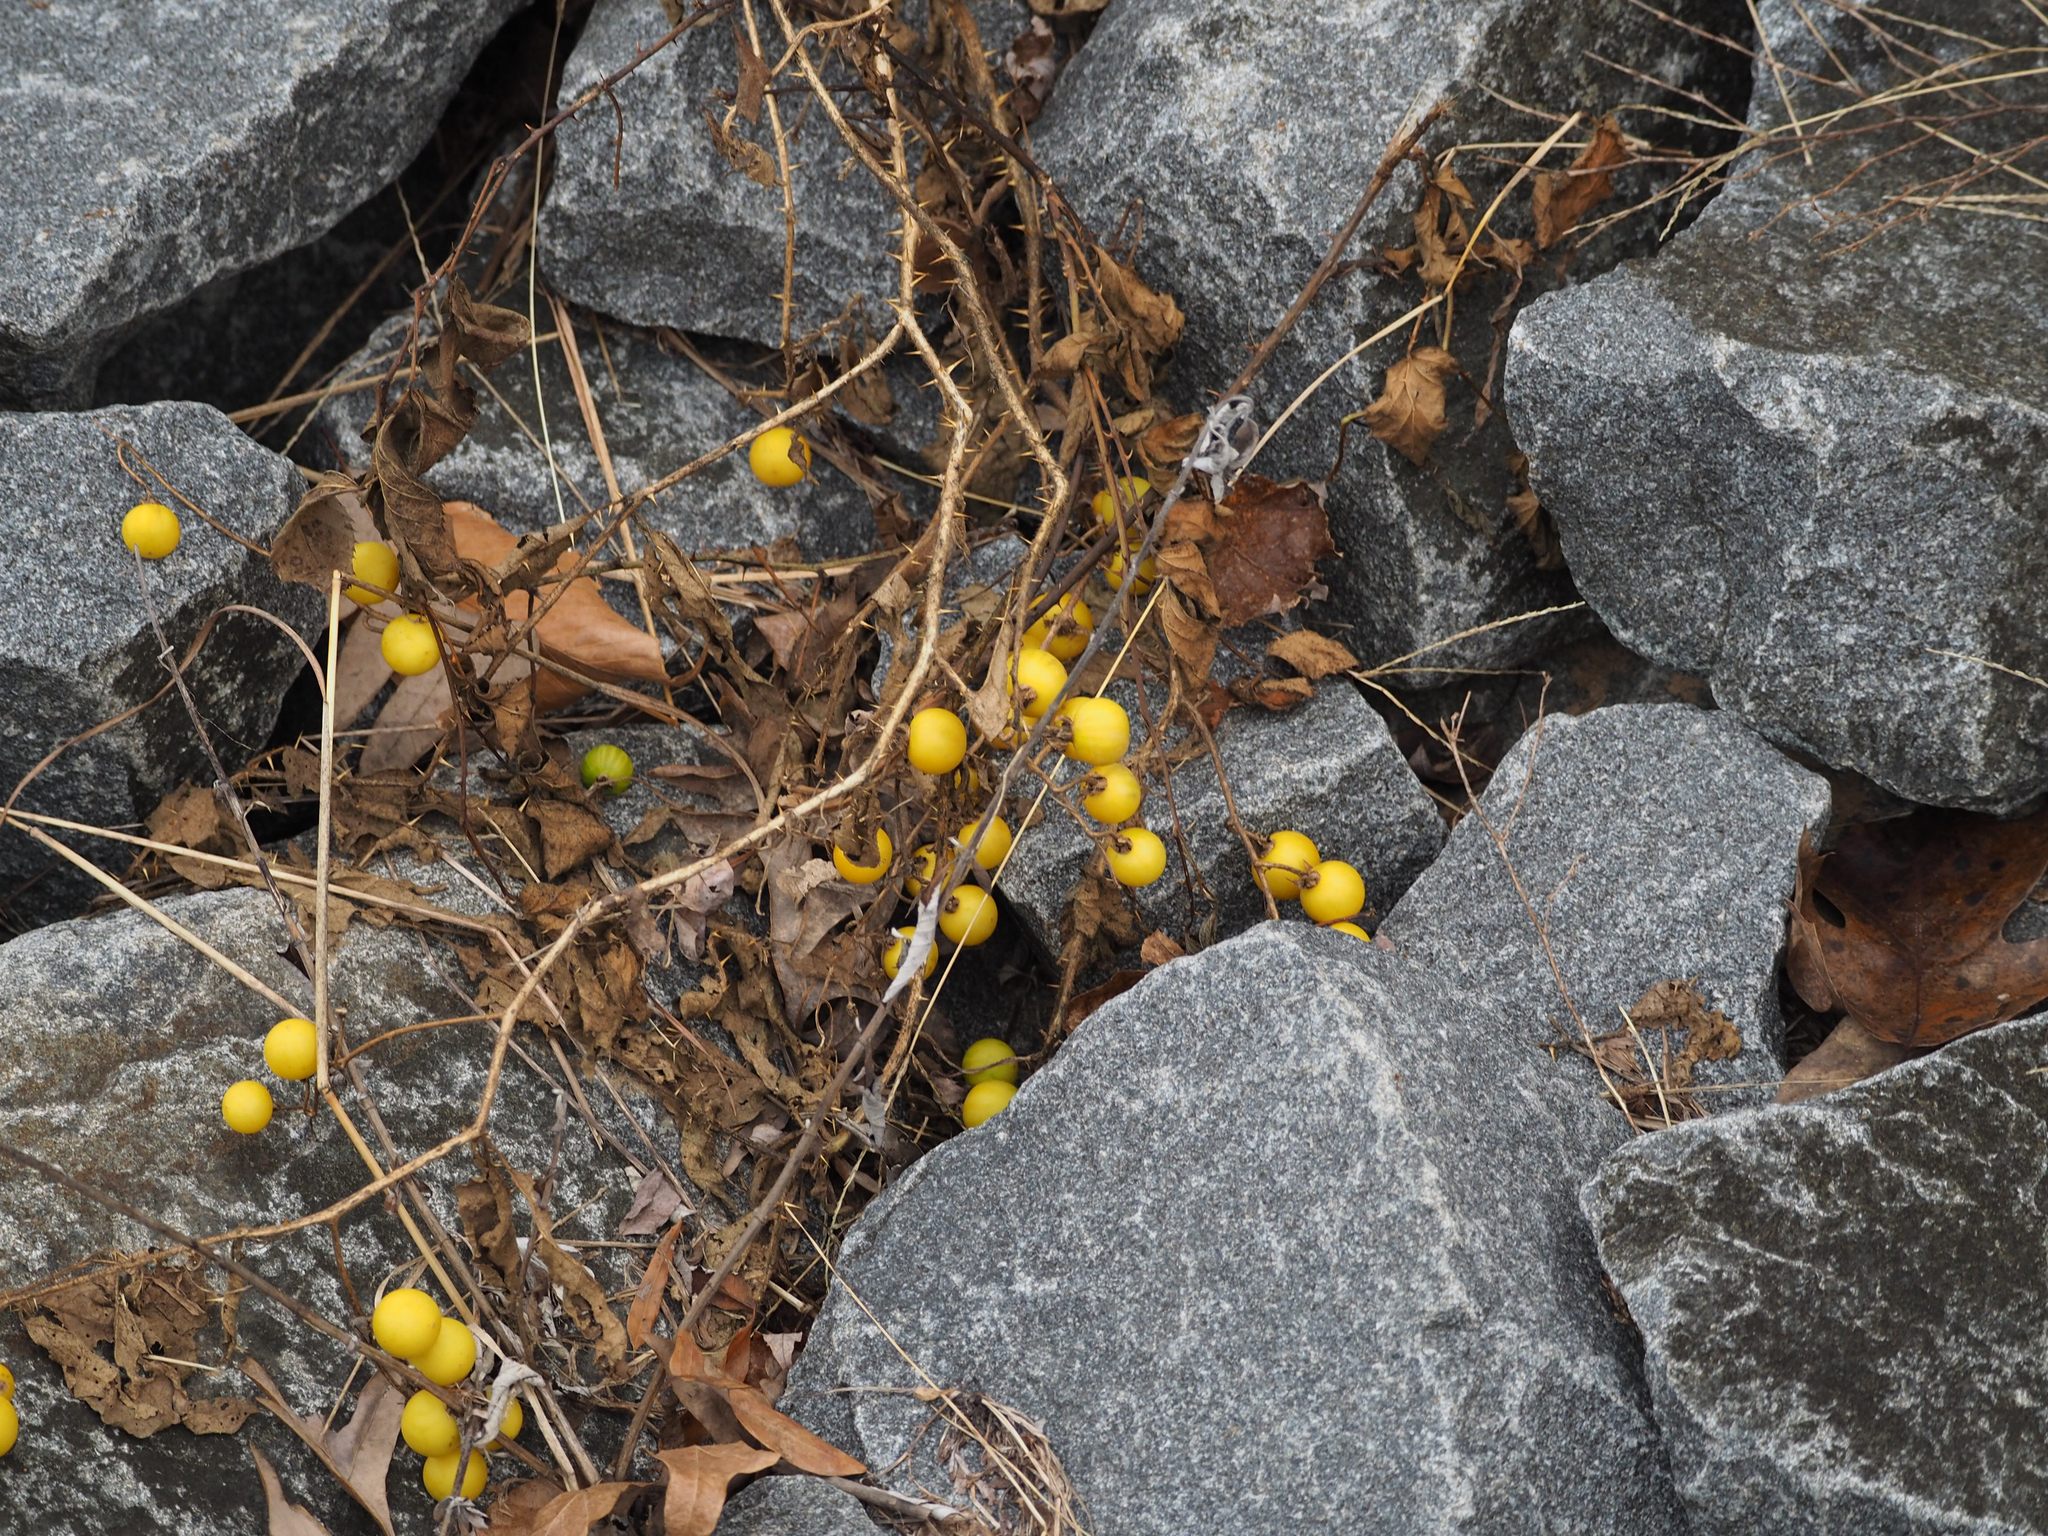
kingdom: Plantae
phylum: Tracheophyta
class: Magnoliopsida
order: Solanales
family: Solanaceae
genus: Solanum
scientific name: Solanum carolinense
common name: Horse-nettle
